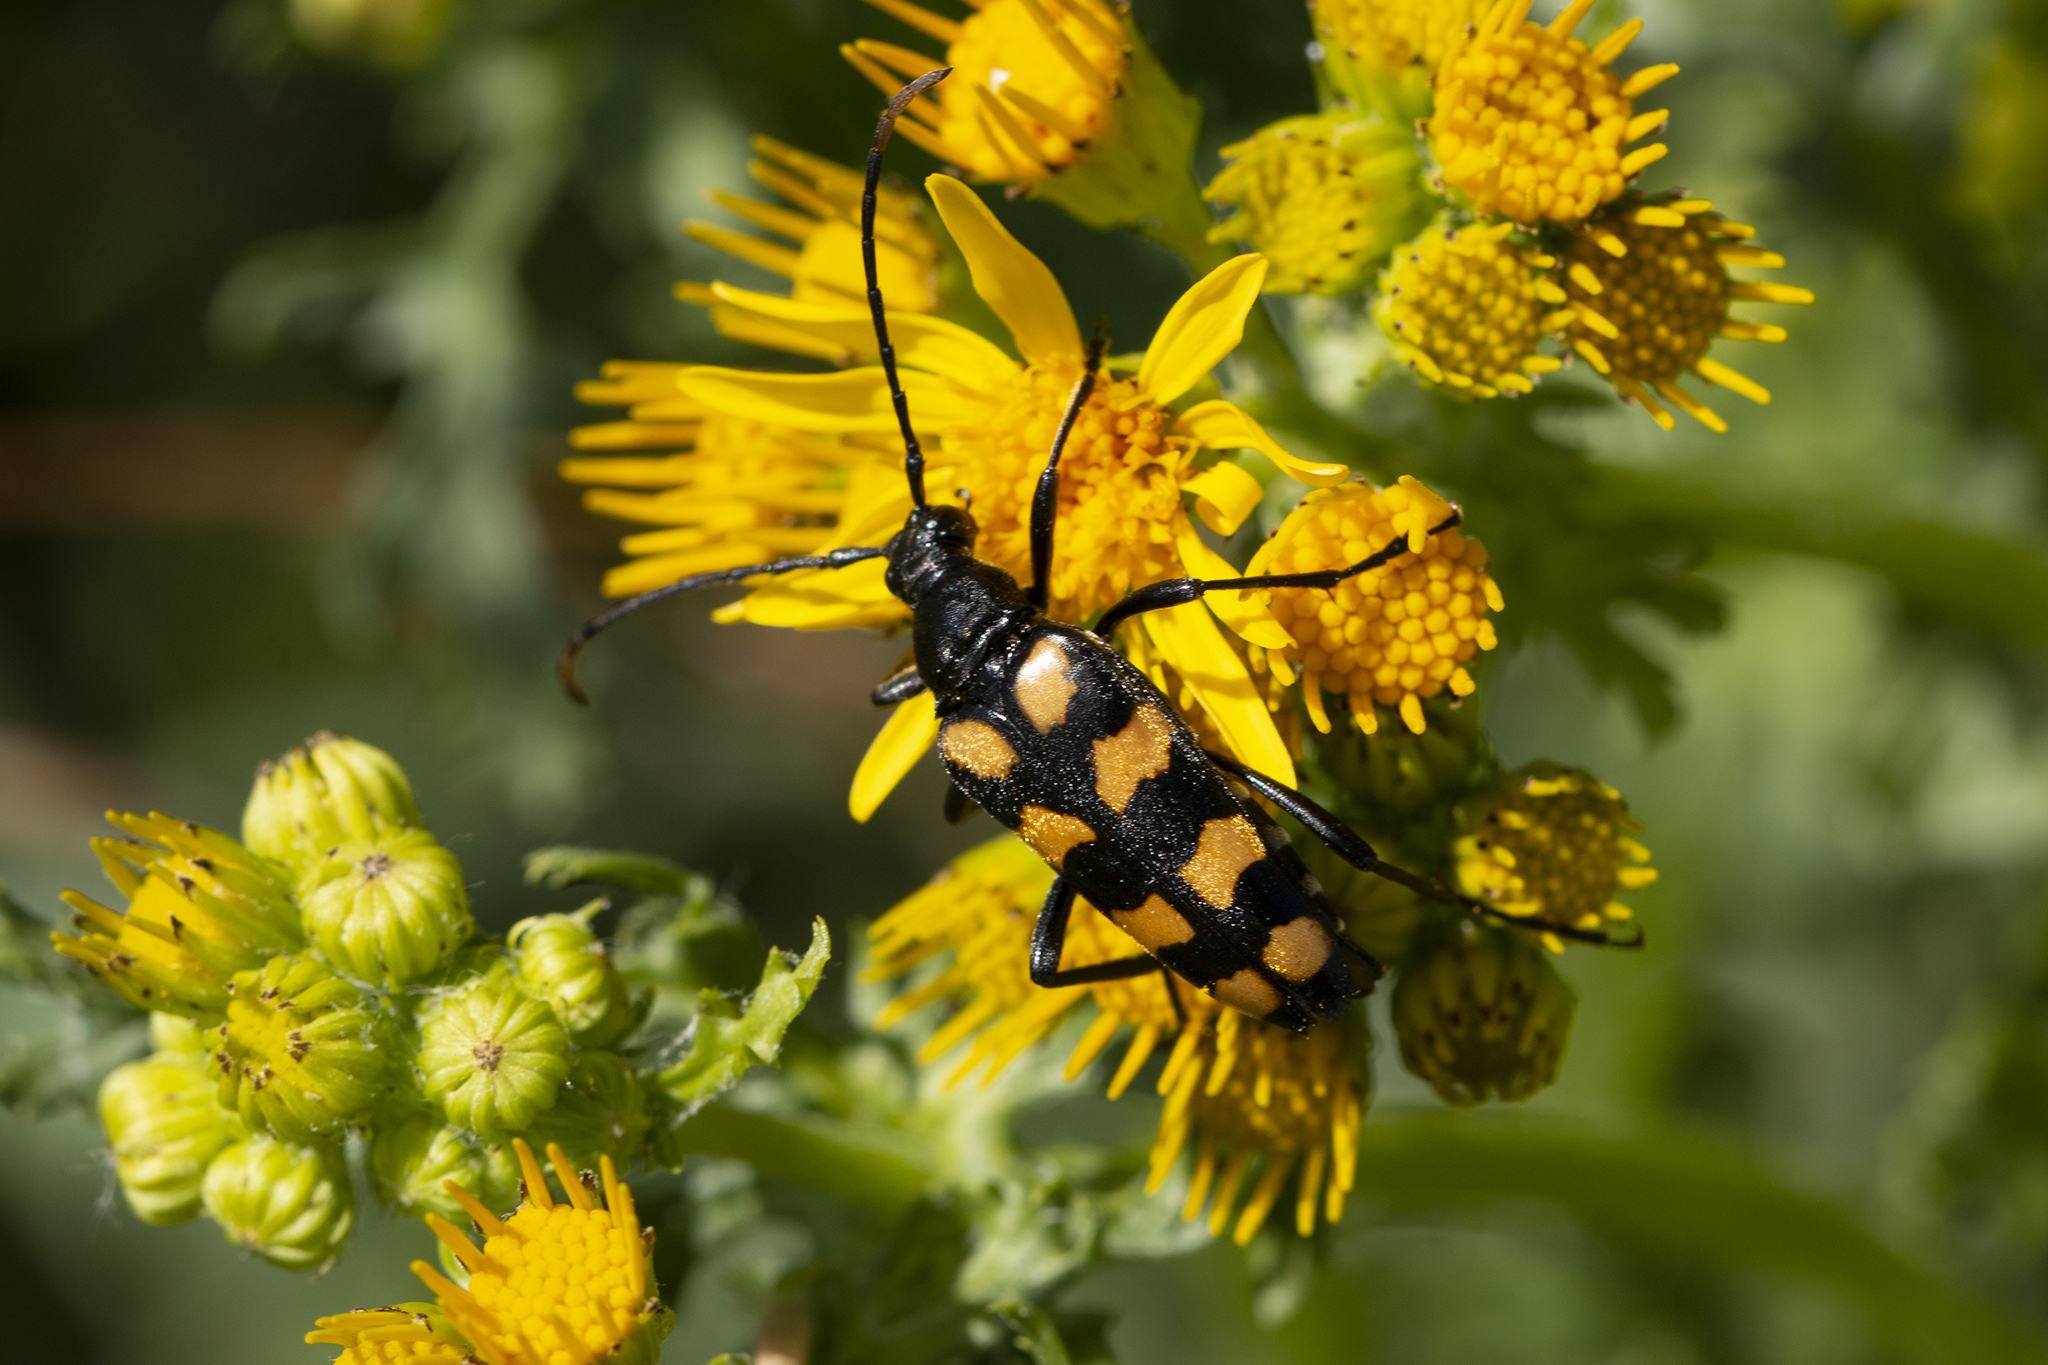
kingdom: Animalia
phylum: Arthropoda
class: Insecta
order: Coleoptera
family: Cerambycidae
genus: Leptura
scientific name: Leptura quadrifasciata
